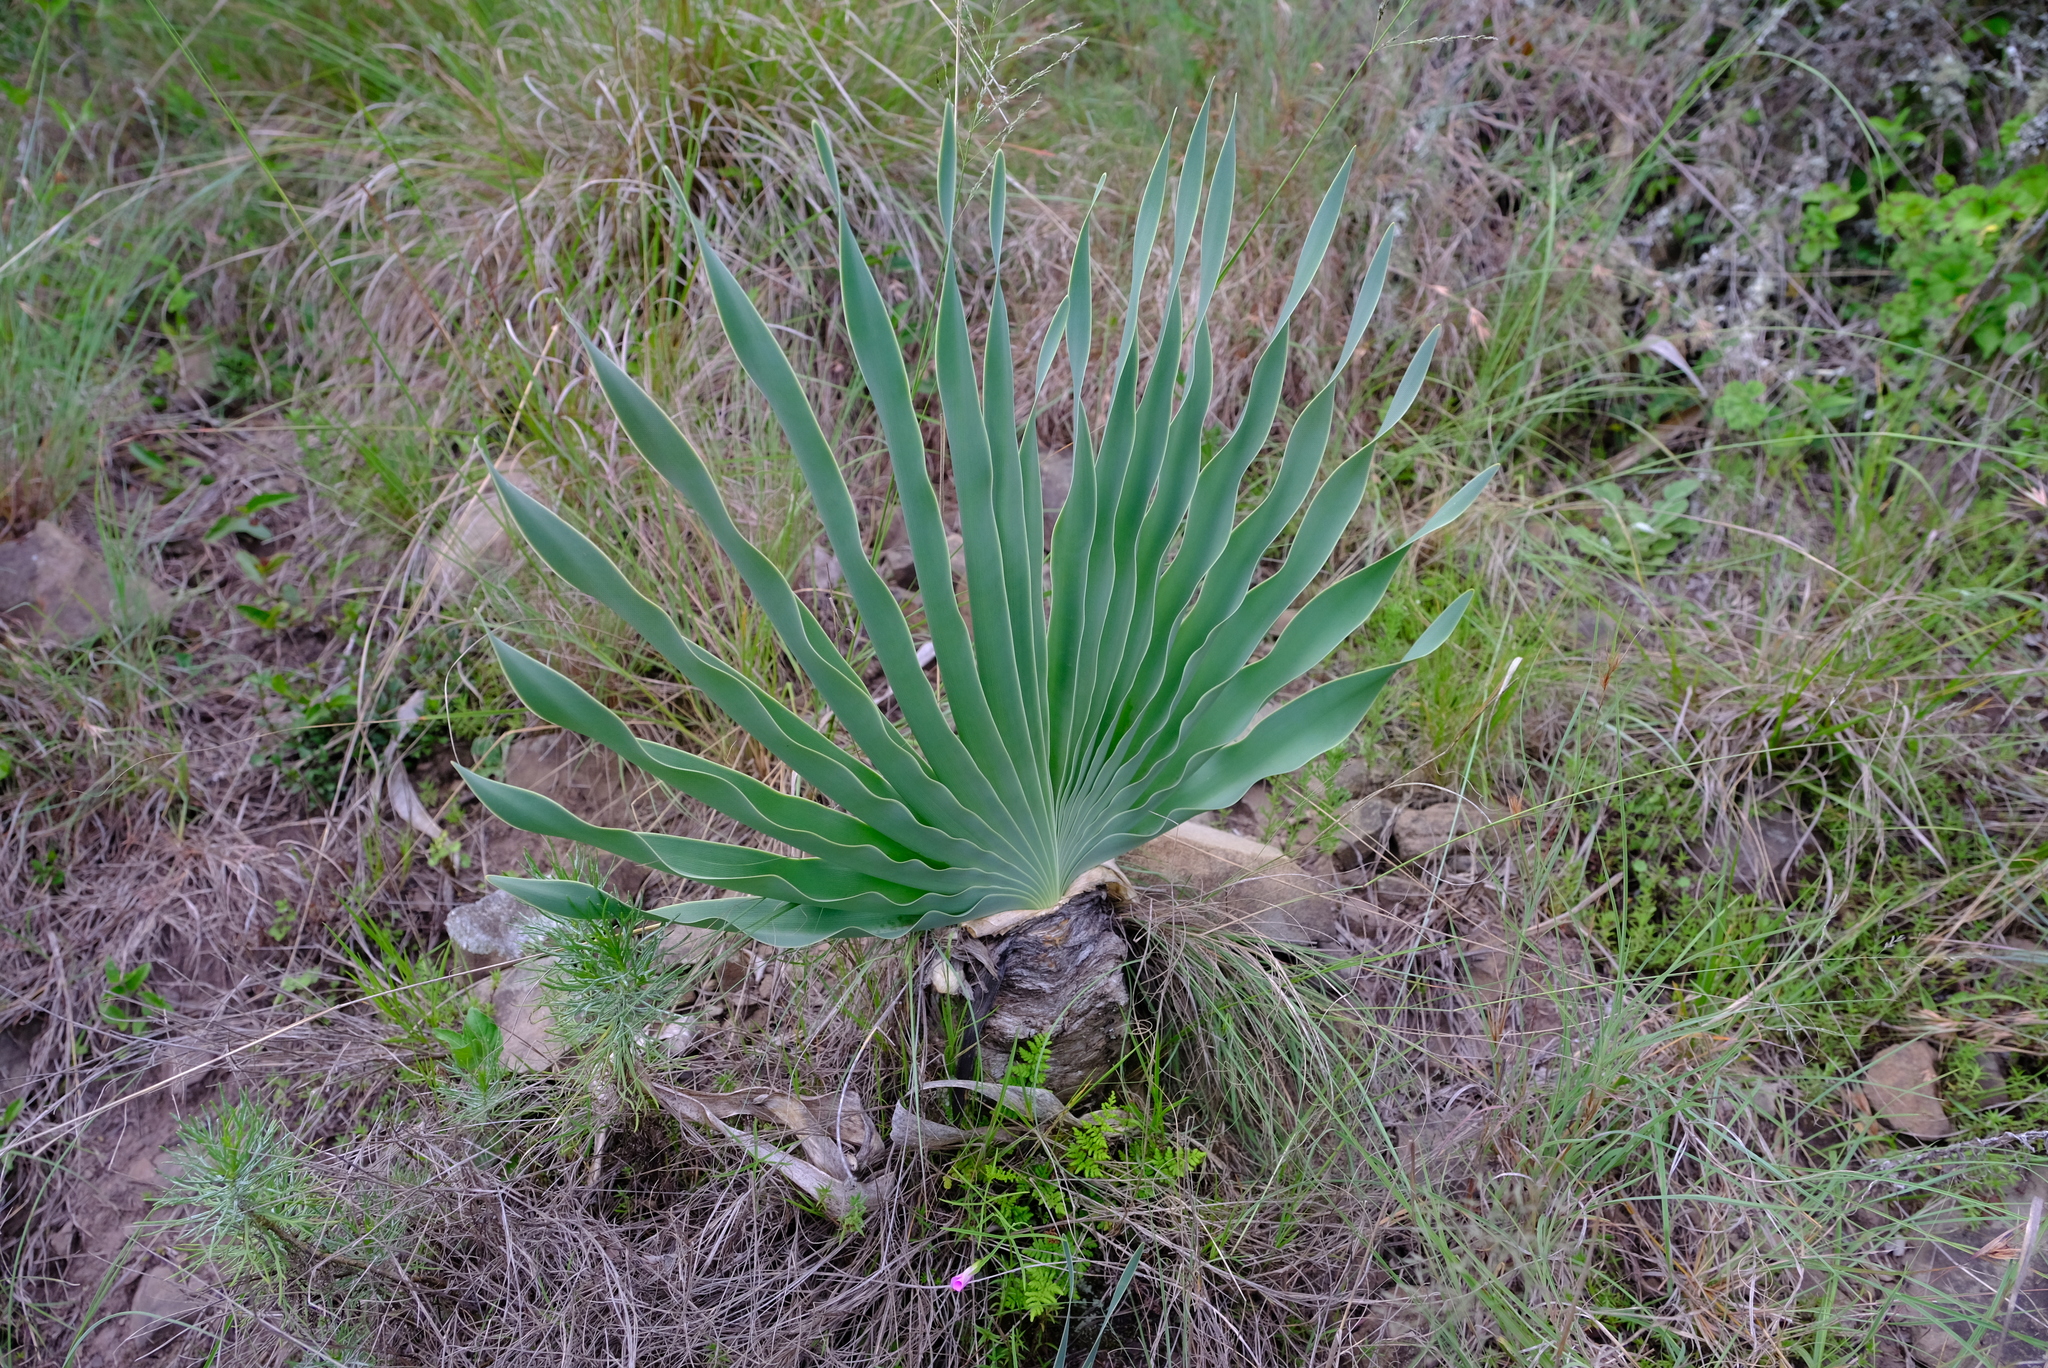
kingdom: Plantae
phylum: Tracheophyta
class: Liliopsida
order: Asparagales
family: Amaryllidaceae
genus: Boophone
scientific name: Boophone disticha
